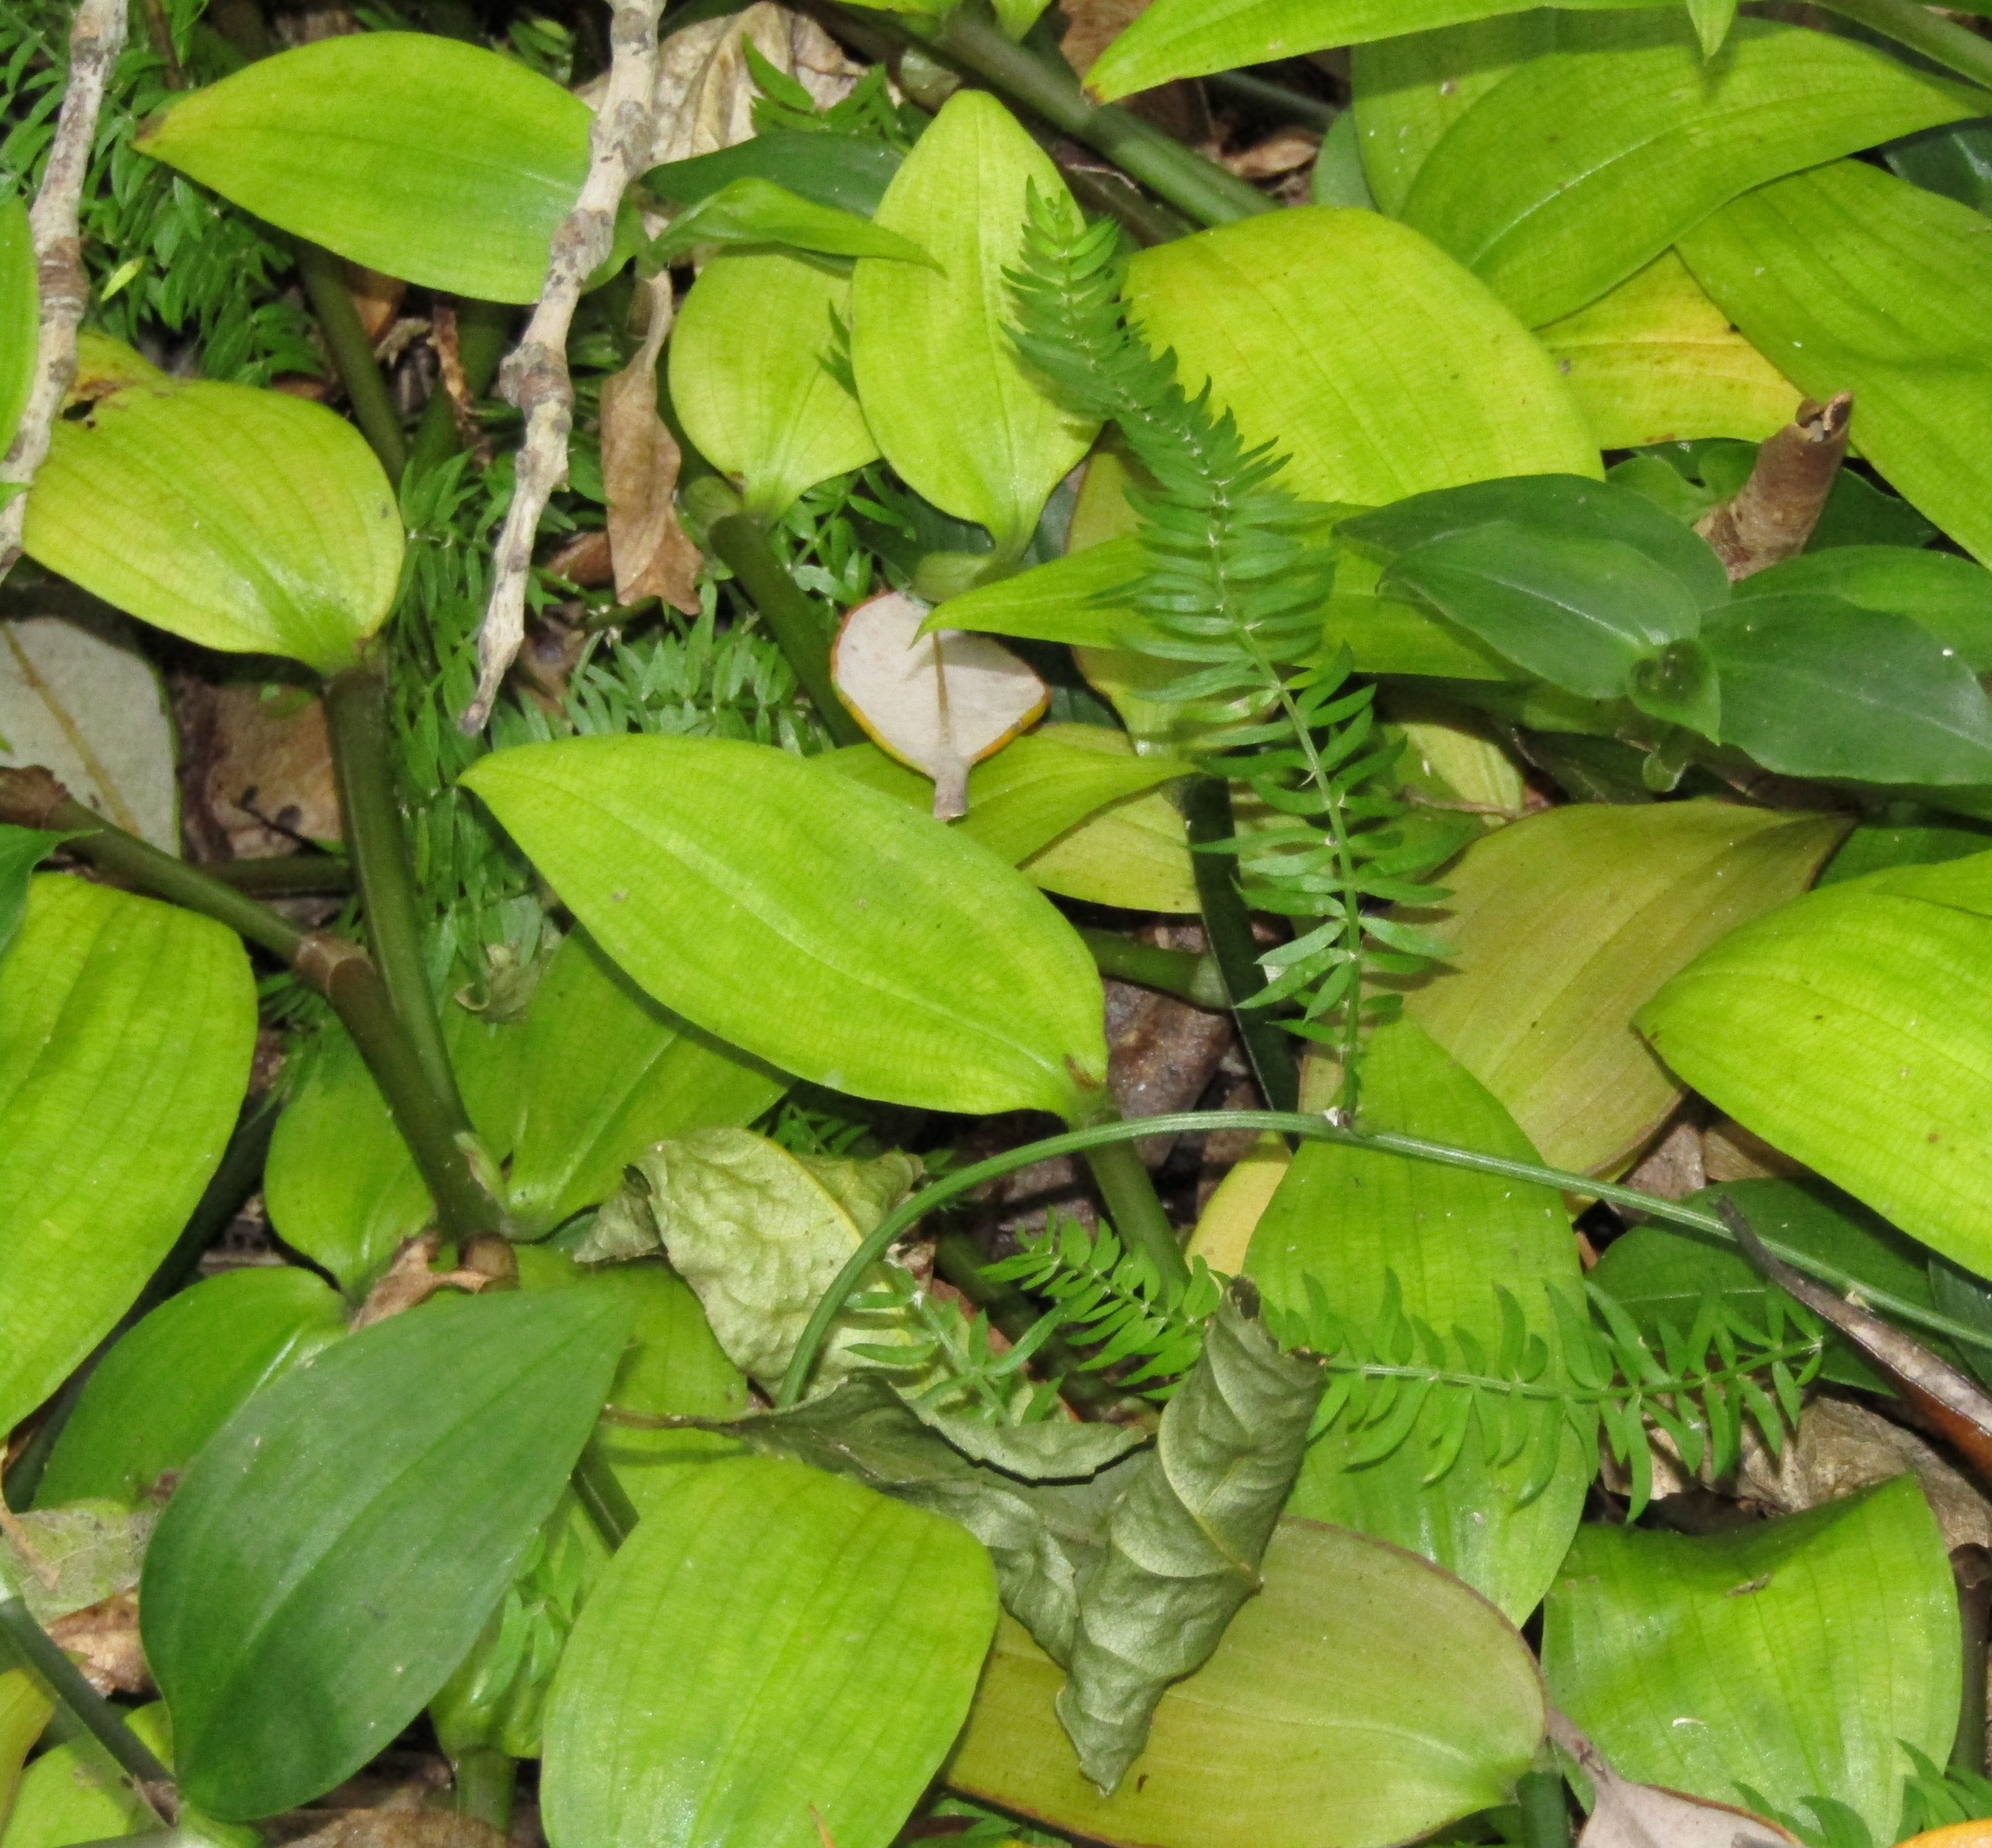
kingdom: Plantae
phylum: Tracheophyta
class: Liliopsida
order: Asparagales
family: Asparagaceae
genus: Asparagus
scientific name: Asparagus scandens
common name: Asparagus-fern
